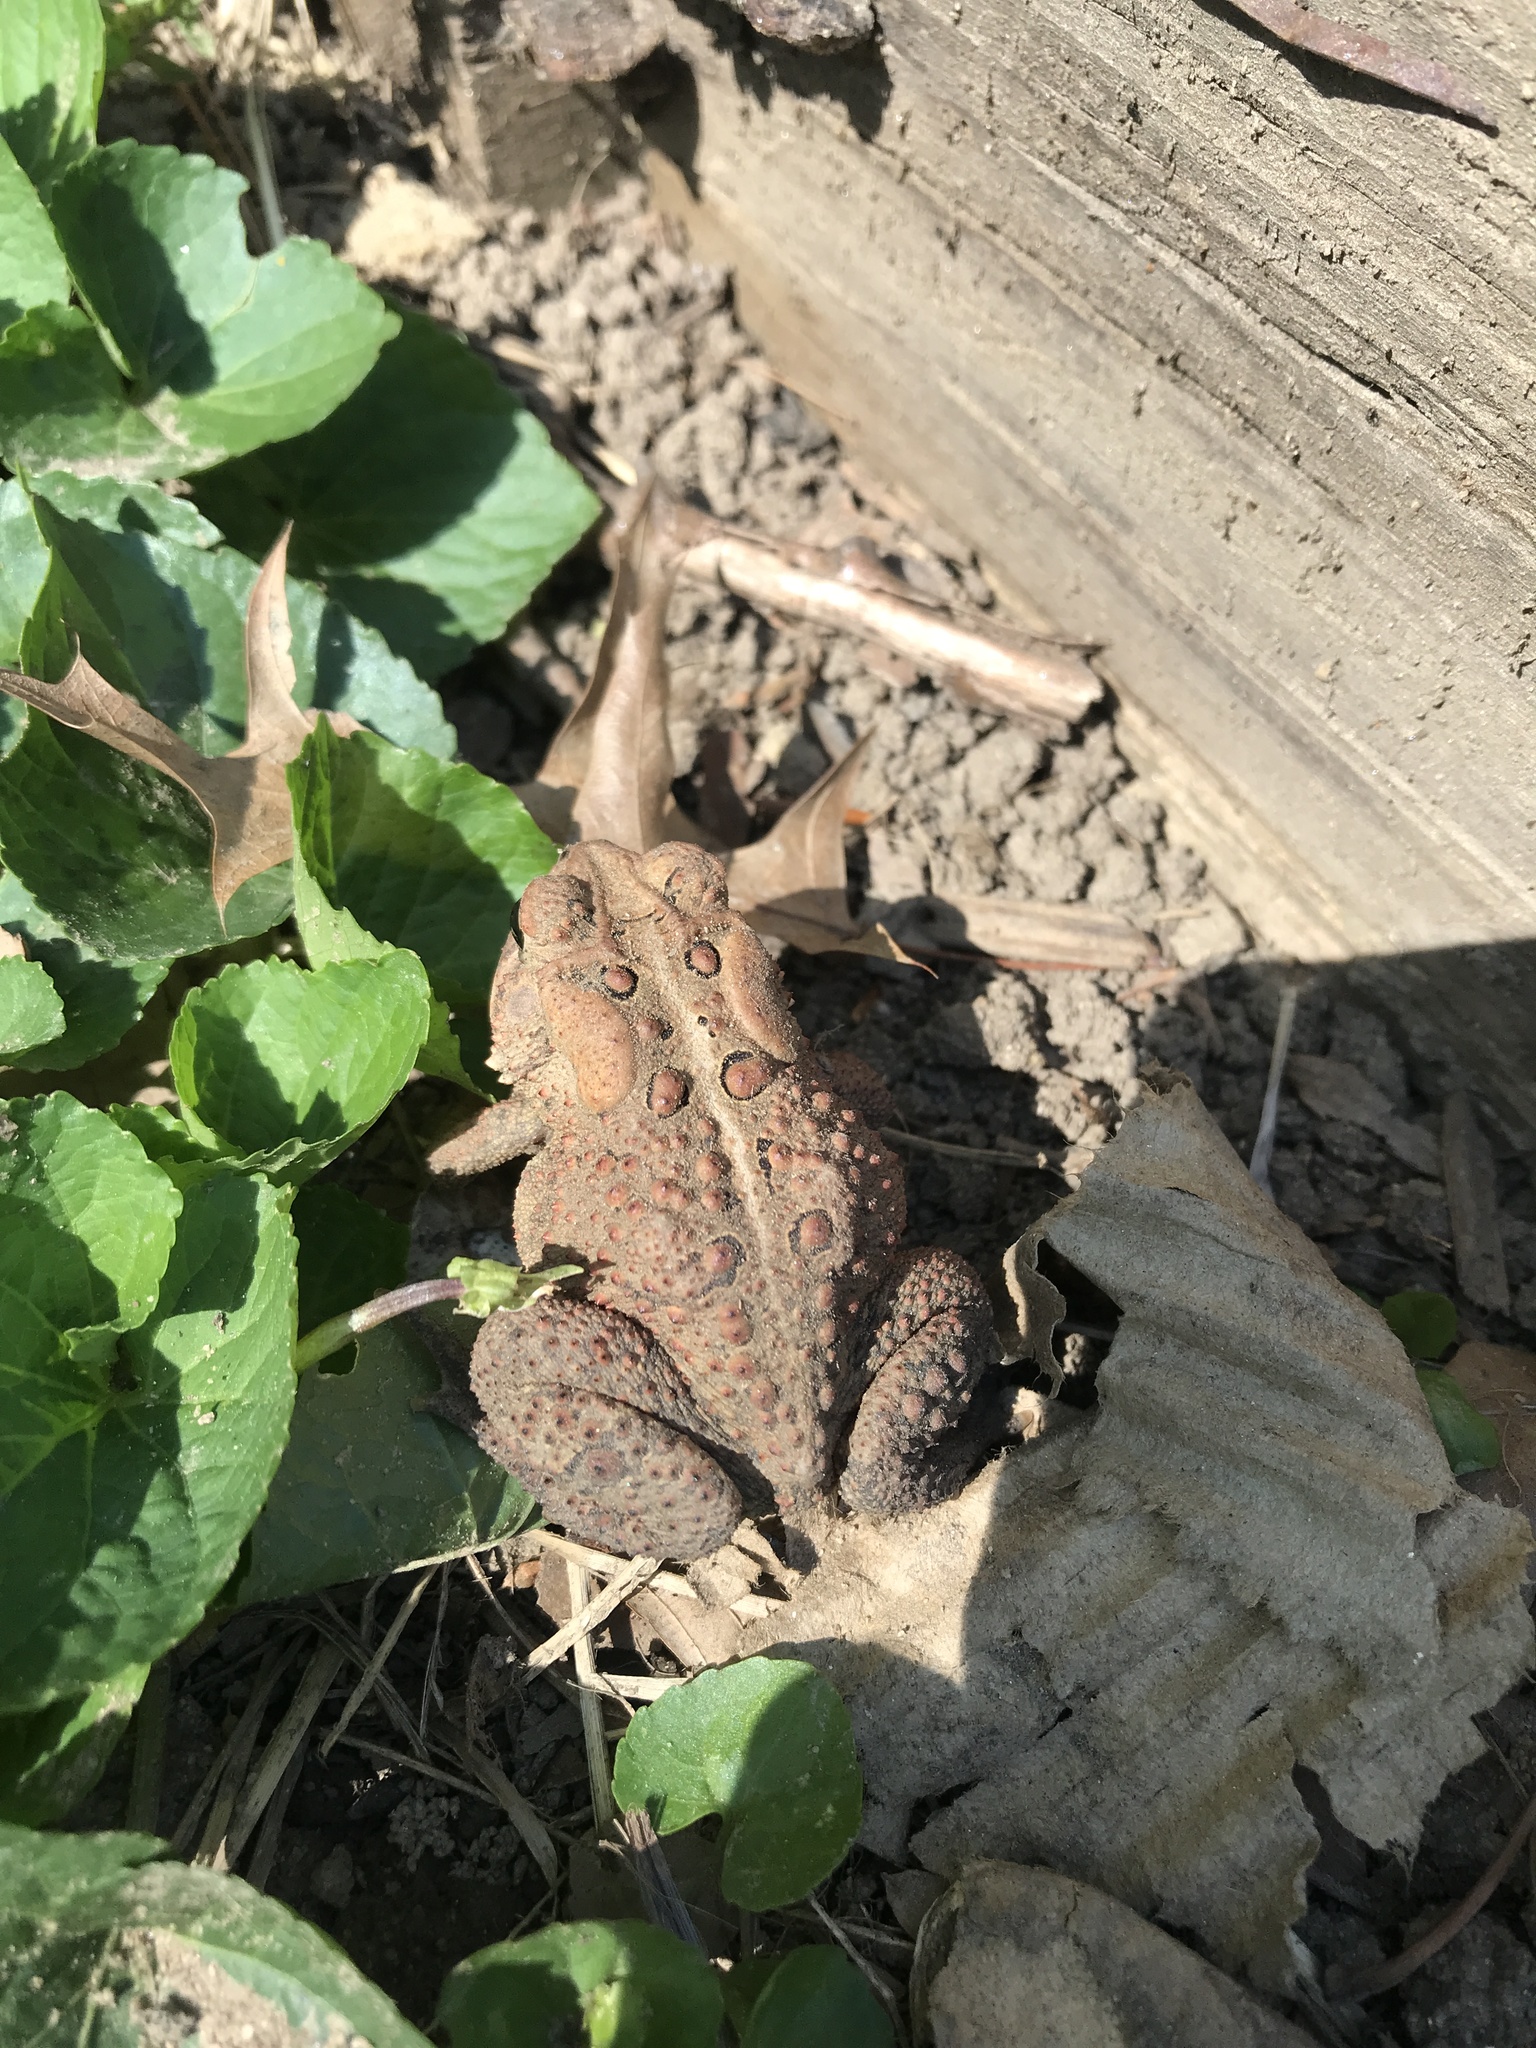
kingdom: Animalia
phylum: Chordata
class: Amphibia
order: Anura
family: Bufonidae
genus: Anaxyrus
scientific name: Anaxyrus americanus
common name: American toad
